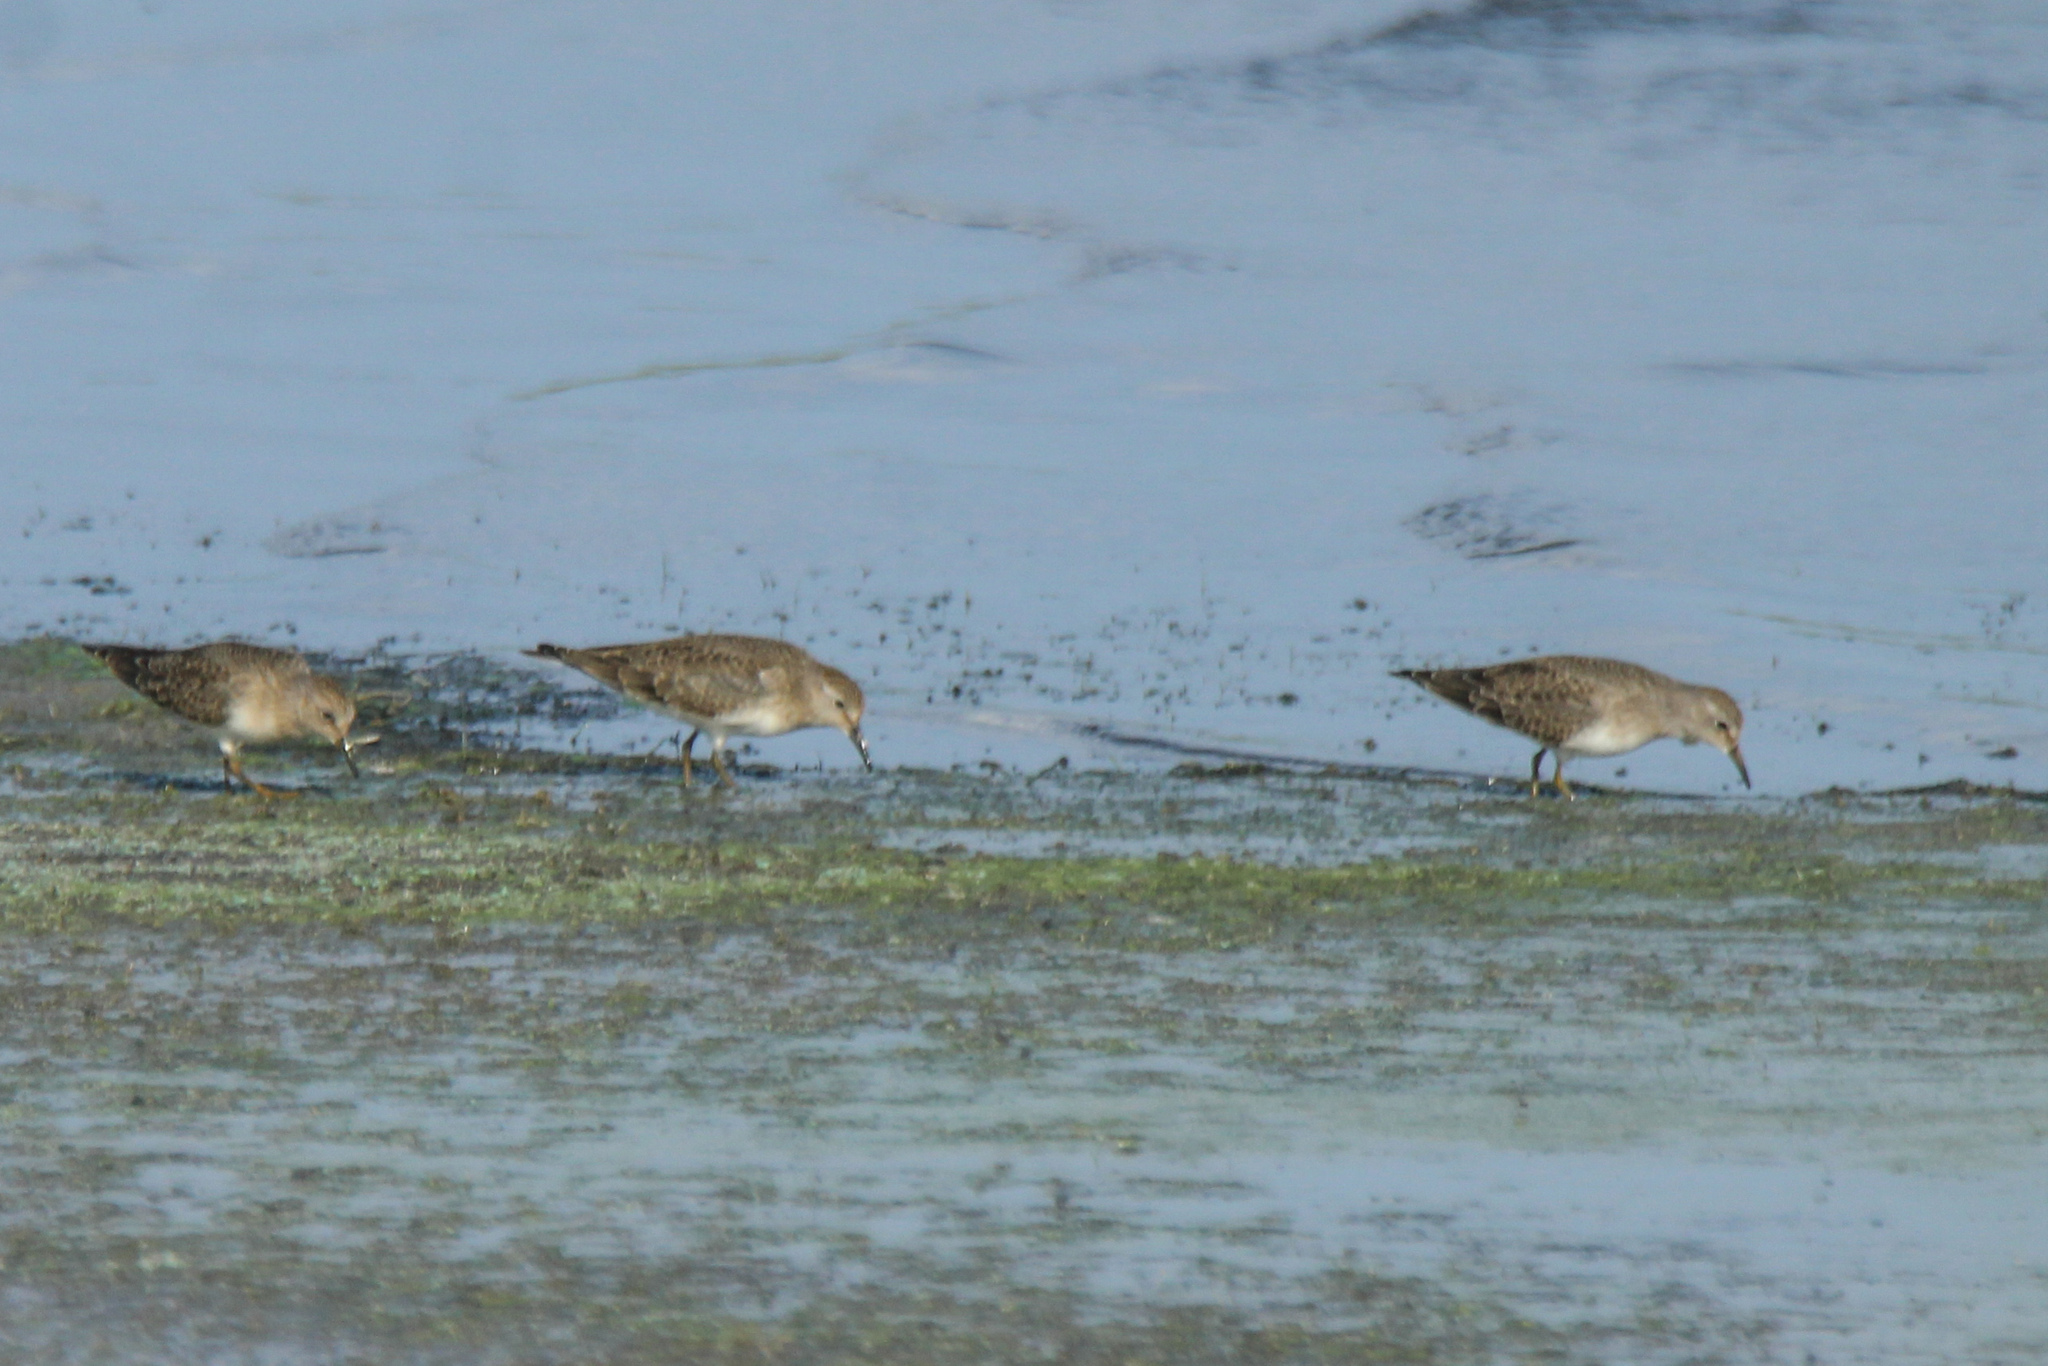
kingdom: Animalia
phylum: Chordata
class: Aves
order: Charadriiformes
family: Scolopacidae
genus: Calidris
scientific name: Calidris temminckii
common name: Temminck's stint
